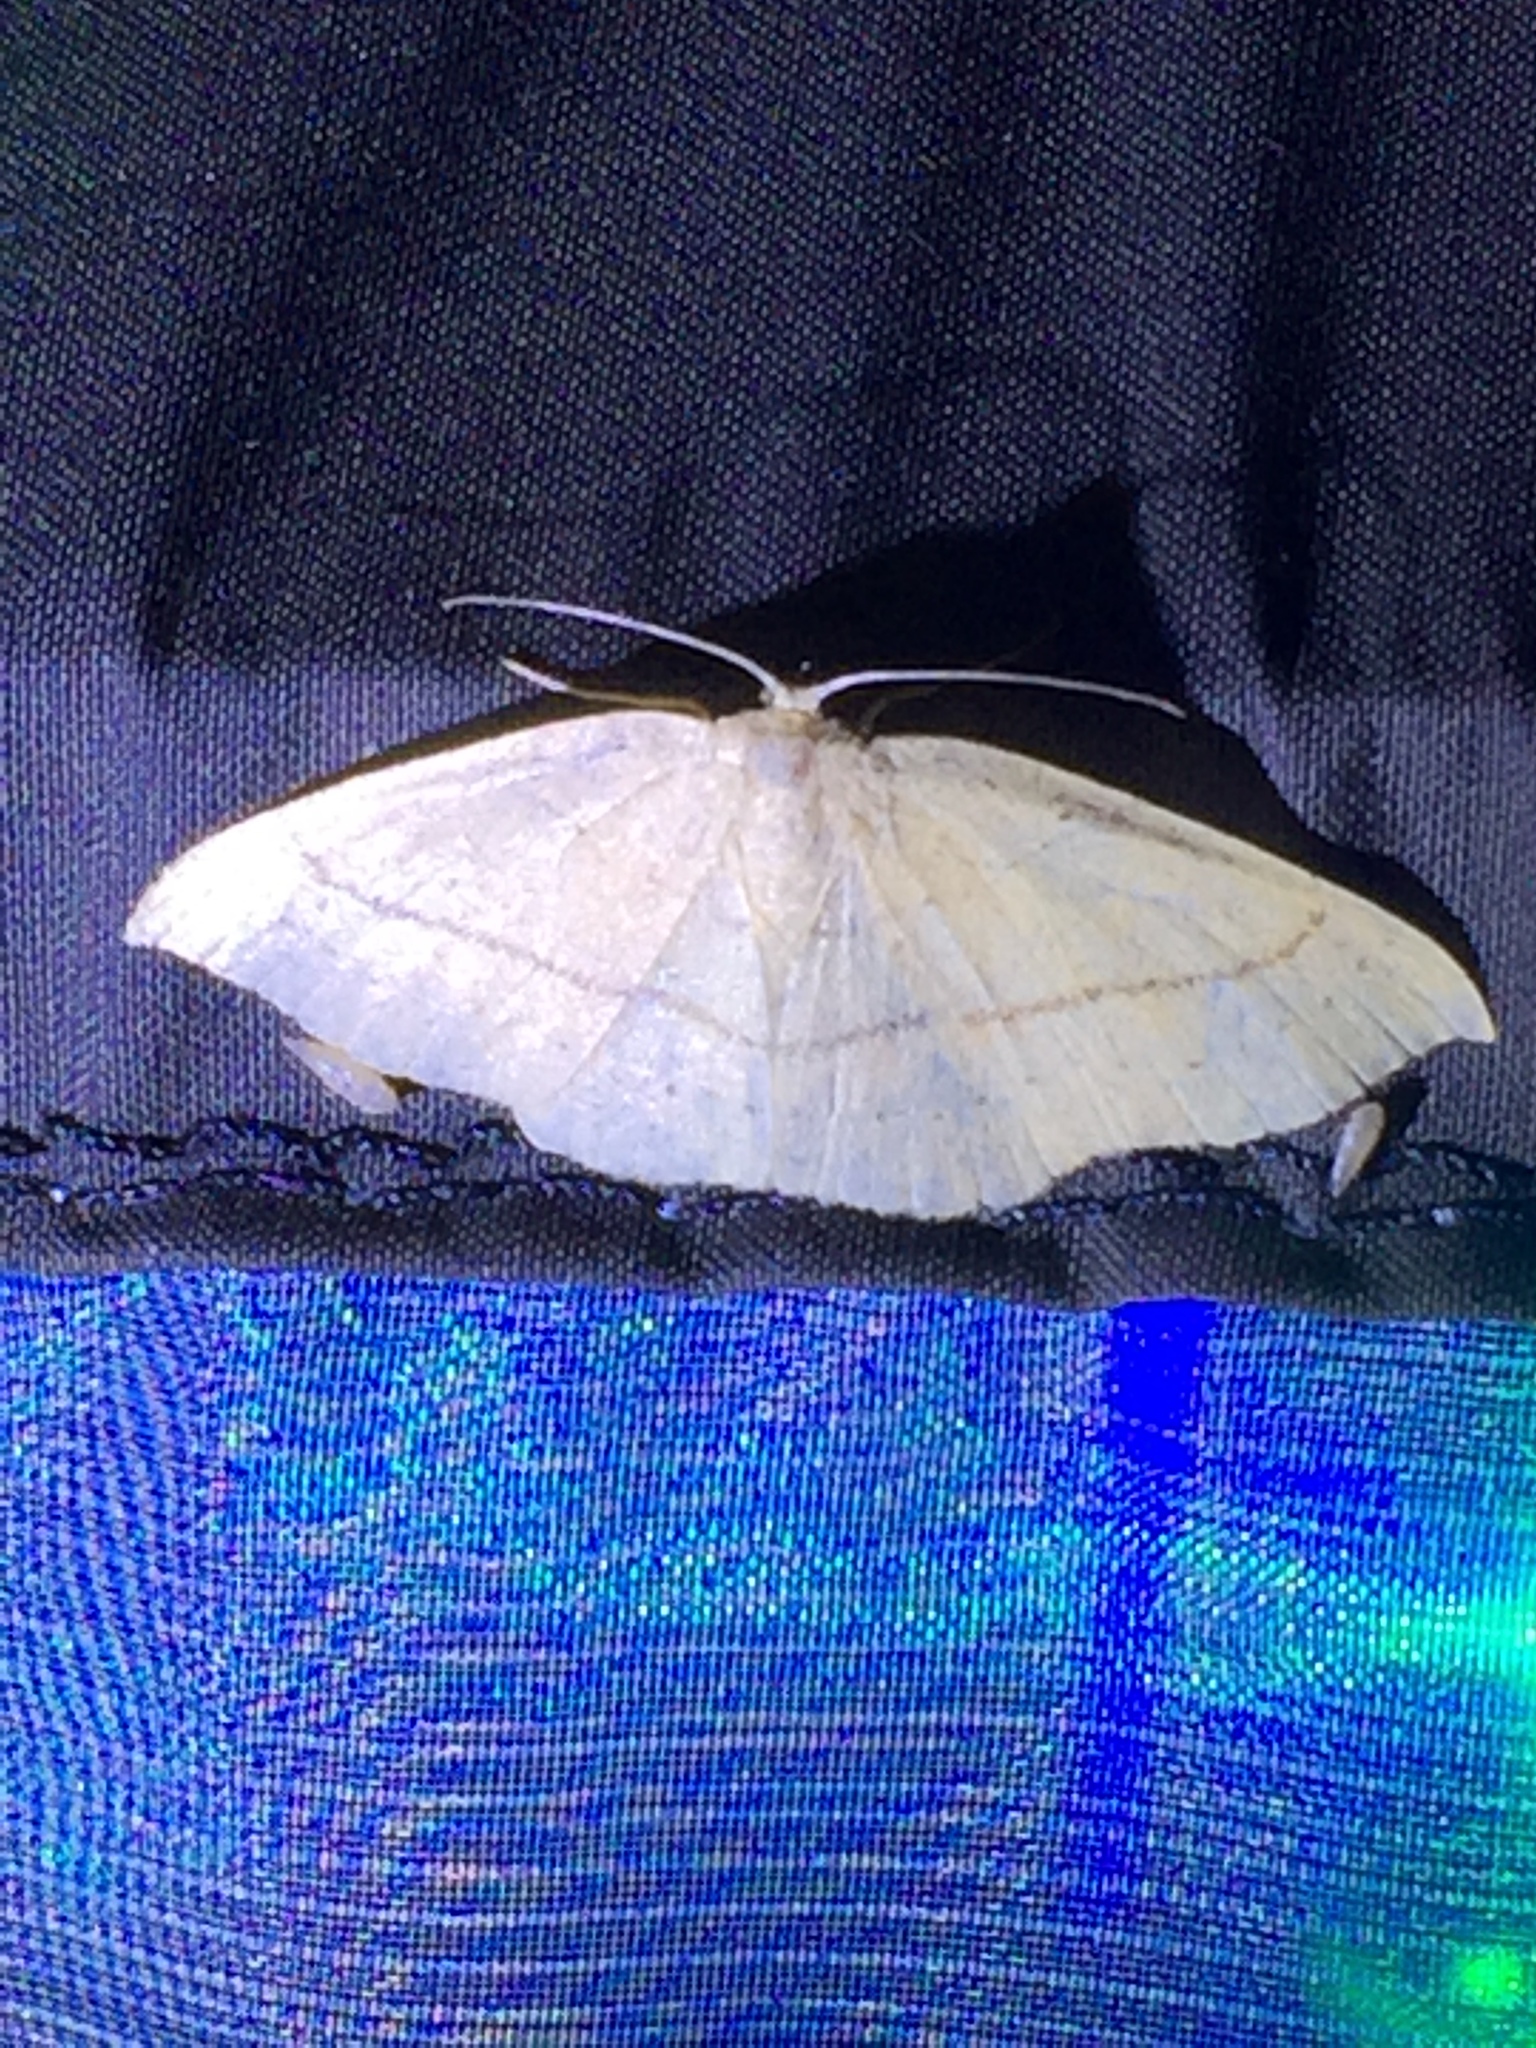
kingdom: Animalia
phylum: Arthropoda
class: Insecta
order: Lepidoptera
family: Geometridae
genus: Cyclophora
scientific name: Cyclophora linearia
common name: Clay triple-lines
